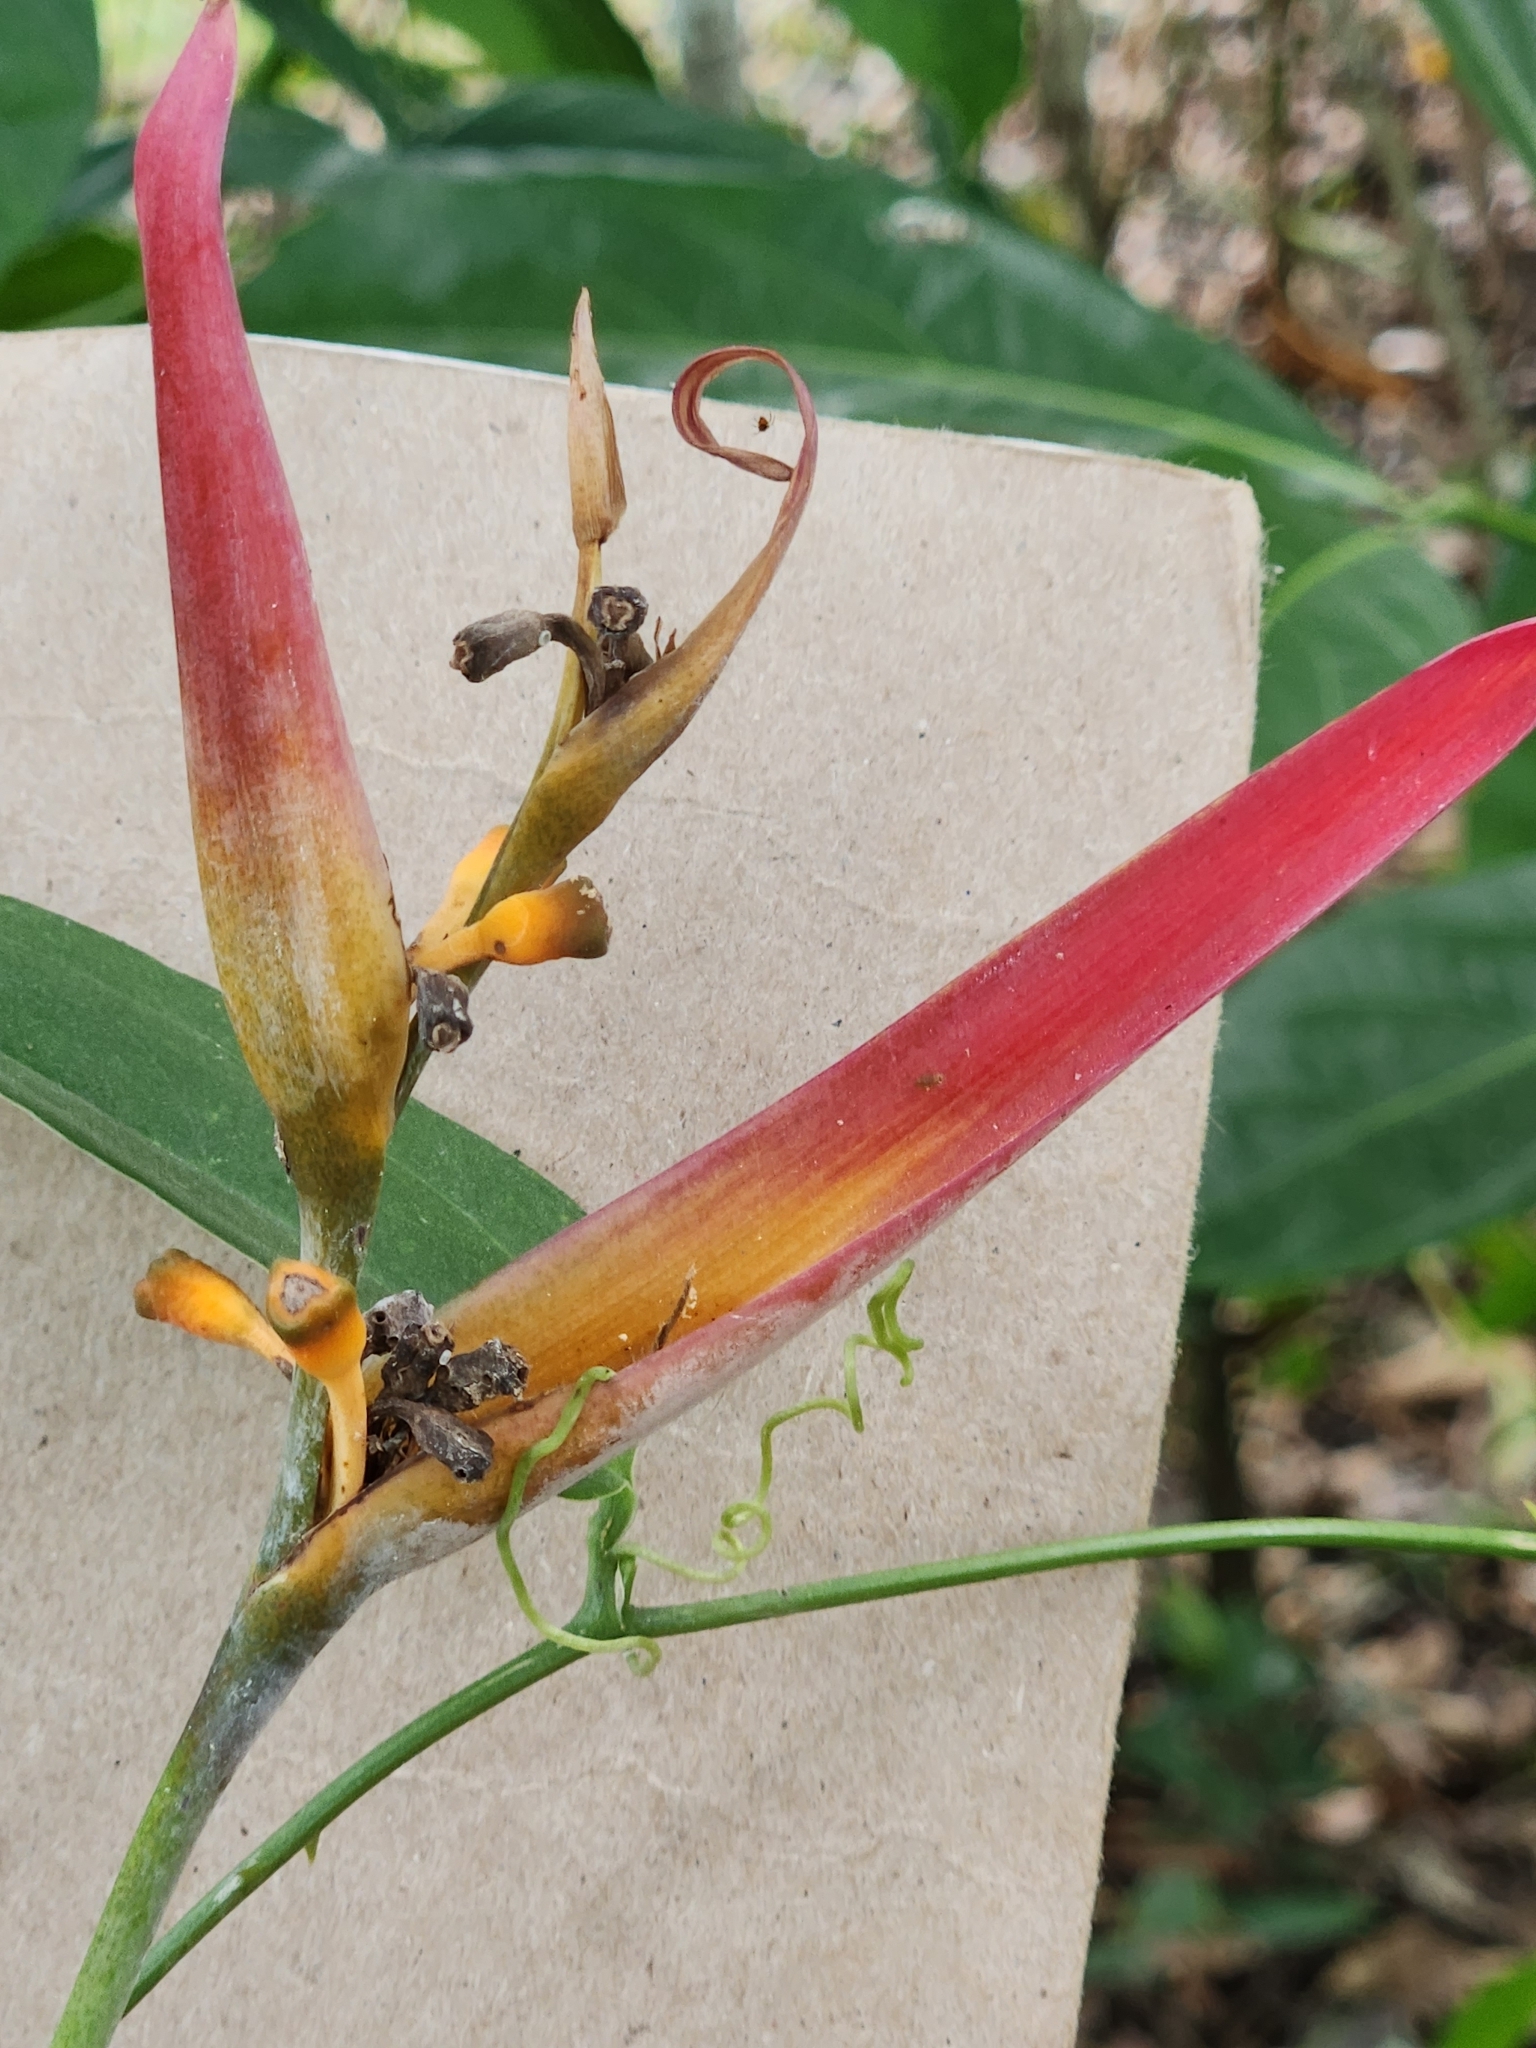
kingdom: Plantae
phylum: Tracheophyta
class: Liliopsida
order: Zingiberales
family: Heliconiaceae
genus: Heliconia
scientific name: Heliconia psittacorum
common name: Parrot's-flower
